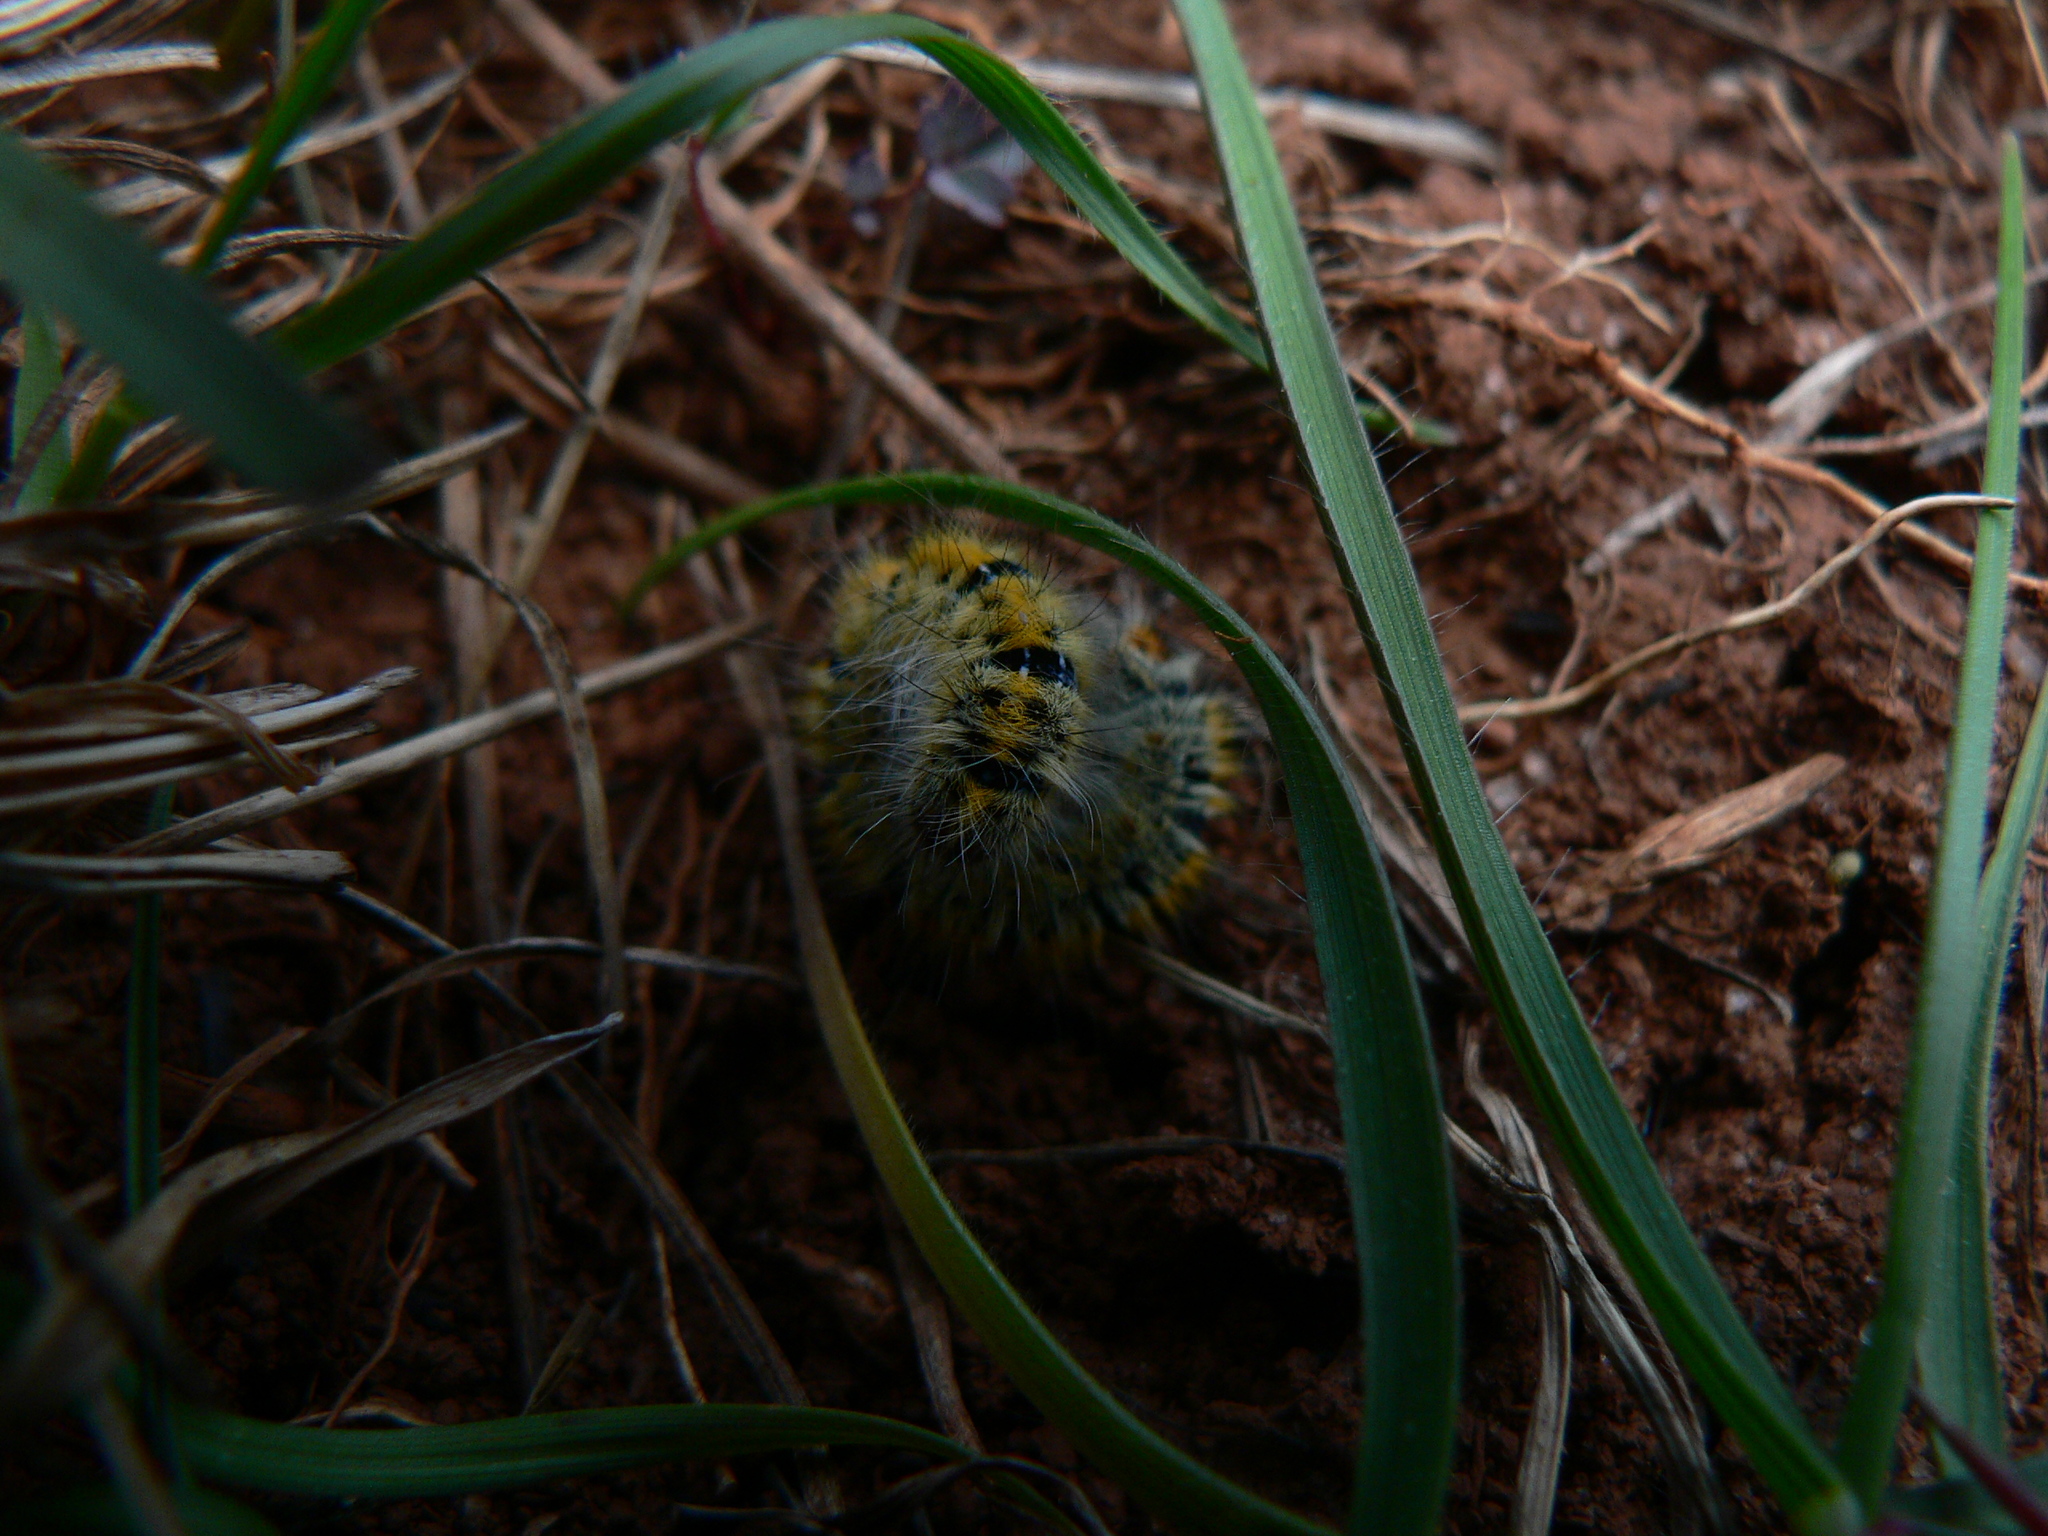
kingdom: Animalia
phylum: Arthropoda
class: Insecta
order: Lepidoptera
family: Lasiocampidae
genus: Lasiocampa
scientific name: Lasiocampa trifolii
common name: Grass eggar
